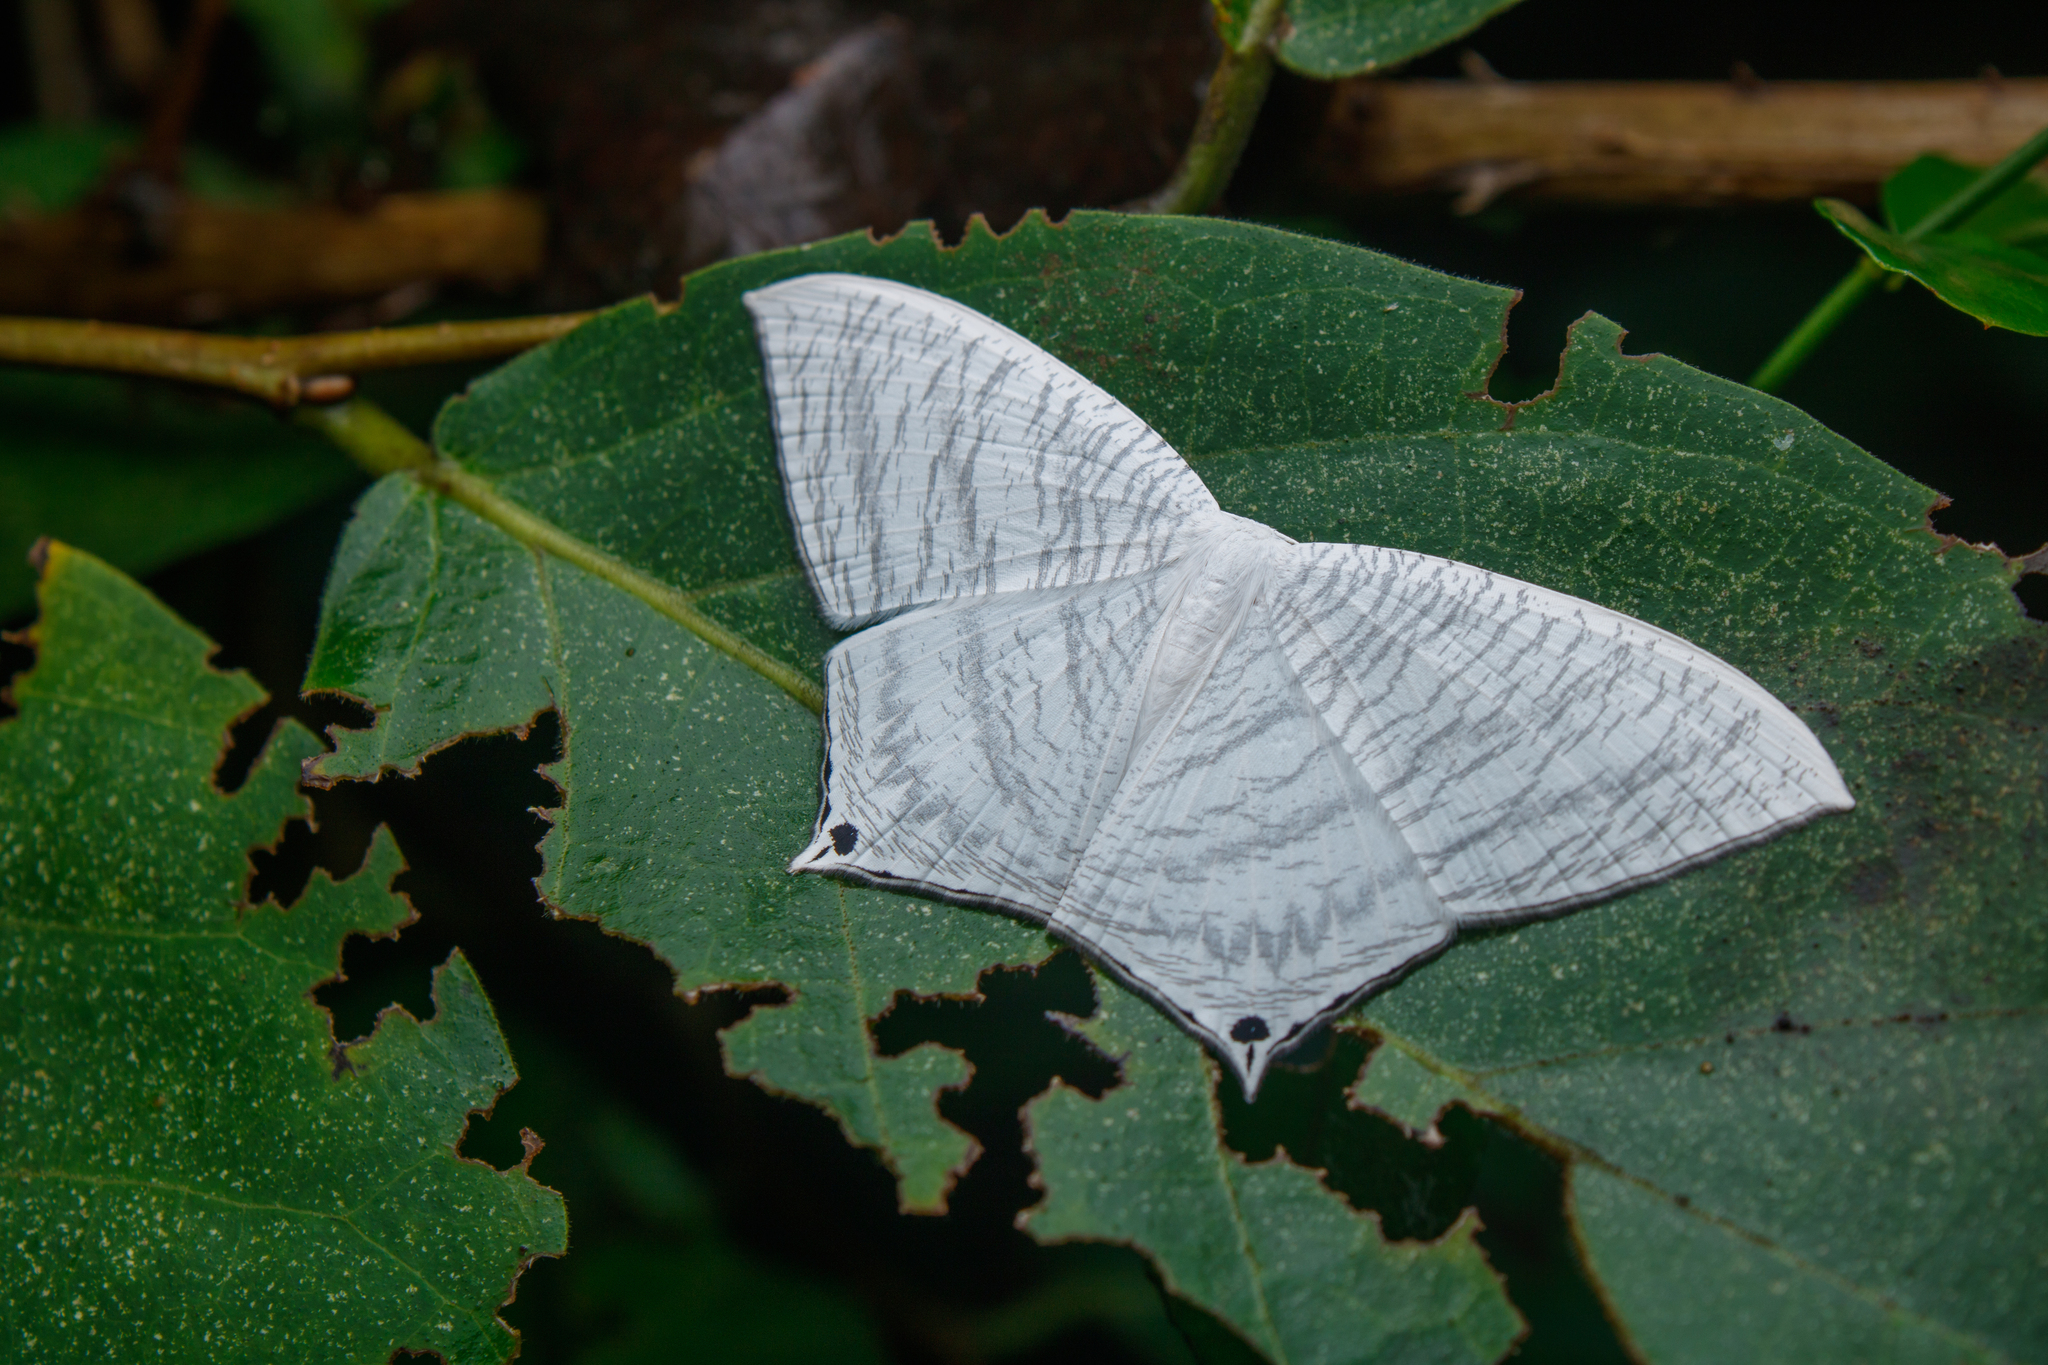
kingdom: Animalia
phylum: Arthropoda
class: Insecta
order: Lepidoptera
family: Uraniidae
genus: Micronia
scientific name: Micronia aculeata
